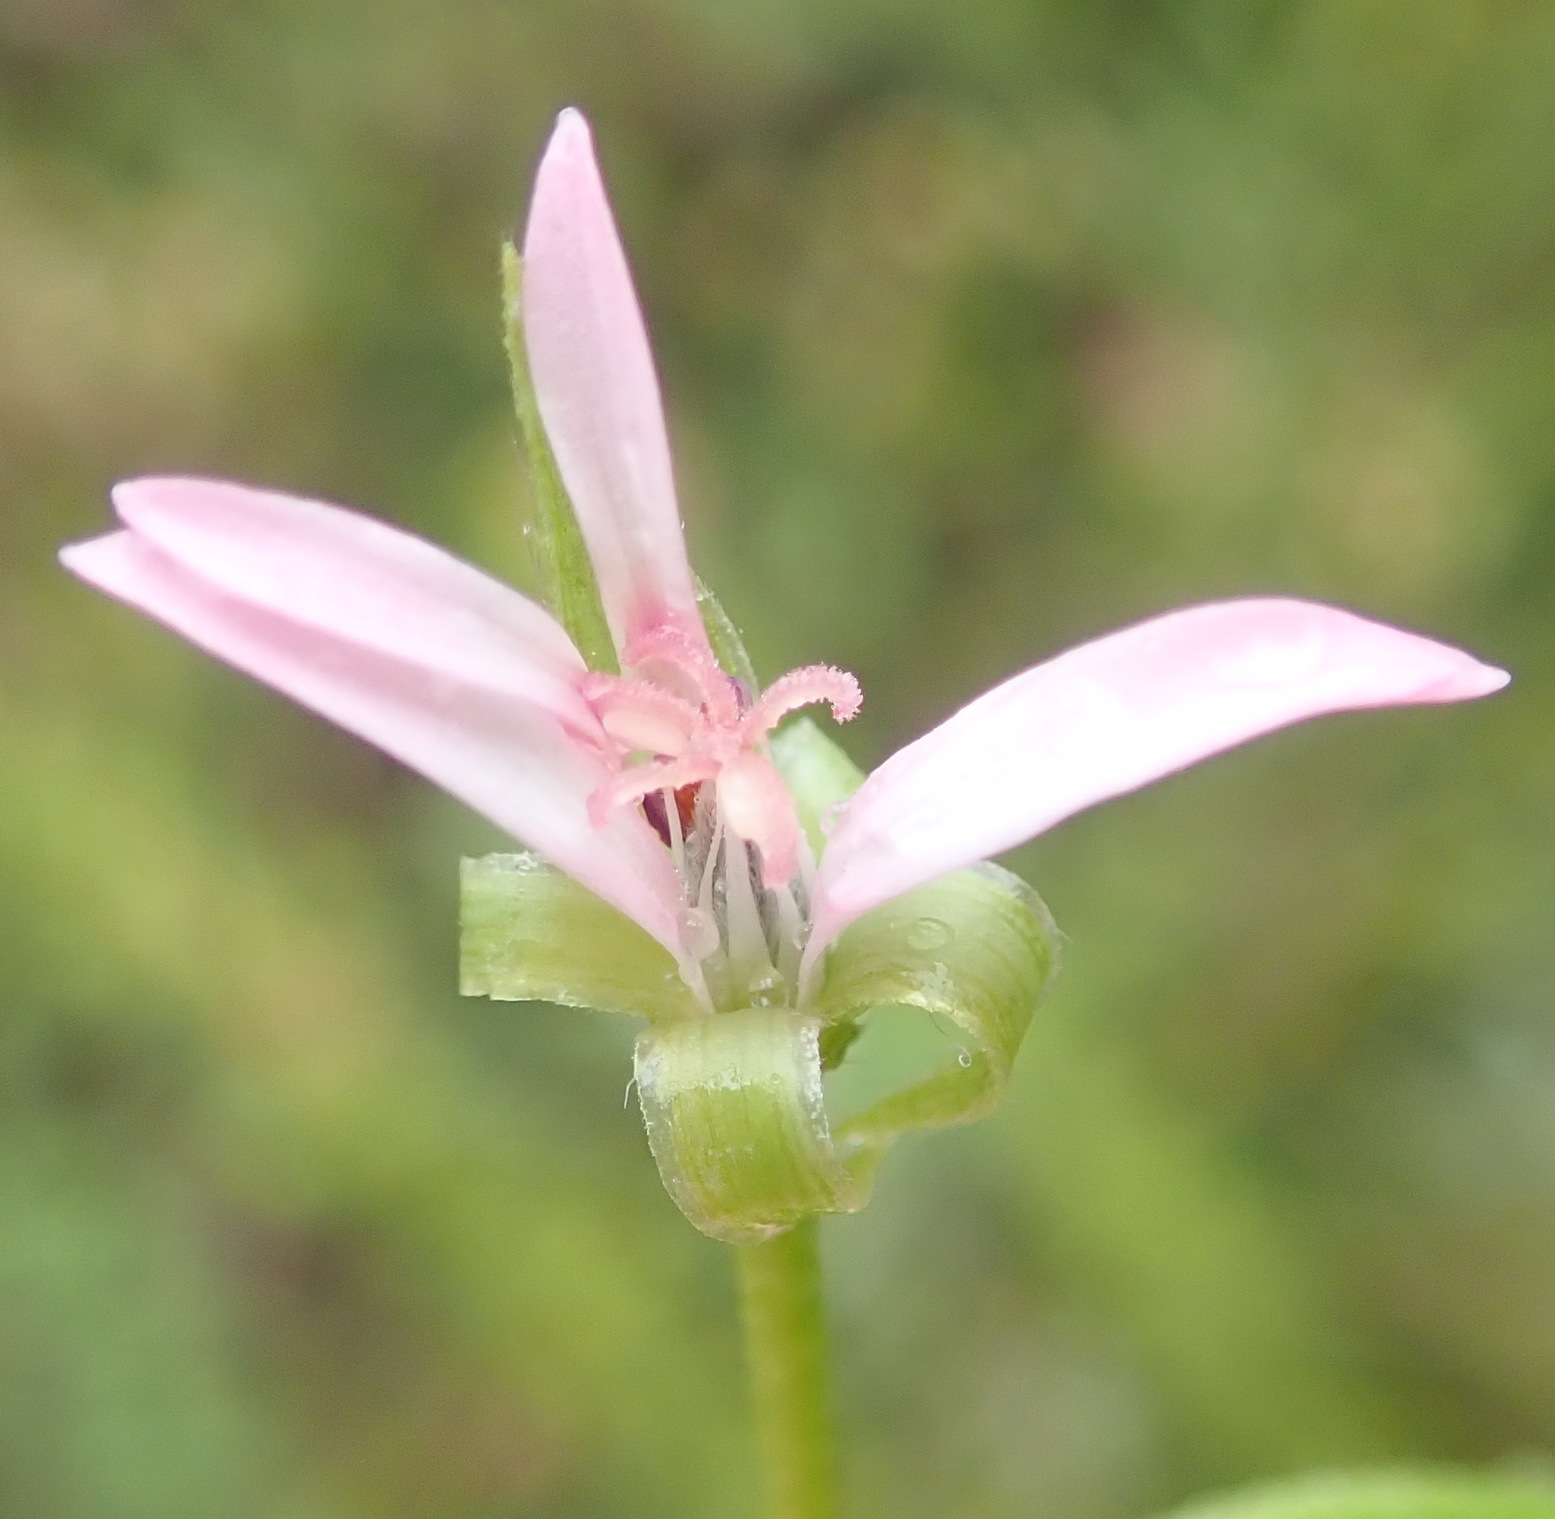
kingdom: Plantae
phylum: Tracheophyta
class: Magnoliopsida
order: Geraniales
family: Geraniaceae
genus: Pelargonium
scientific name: Pelargonium alchemilloides
